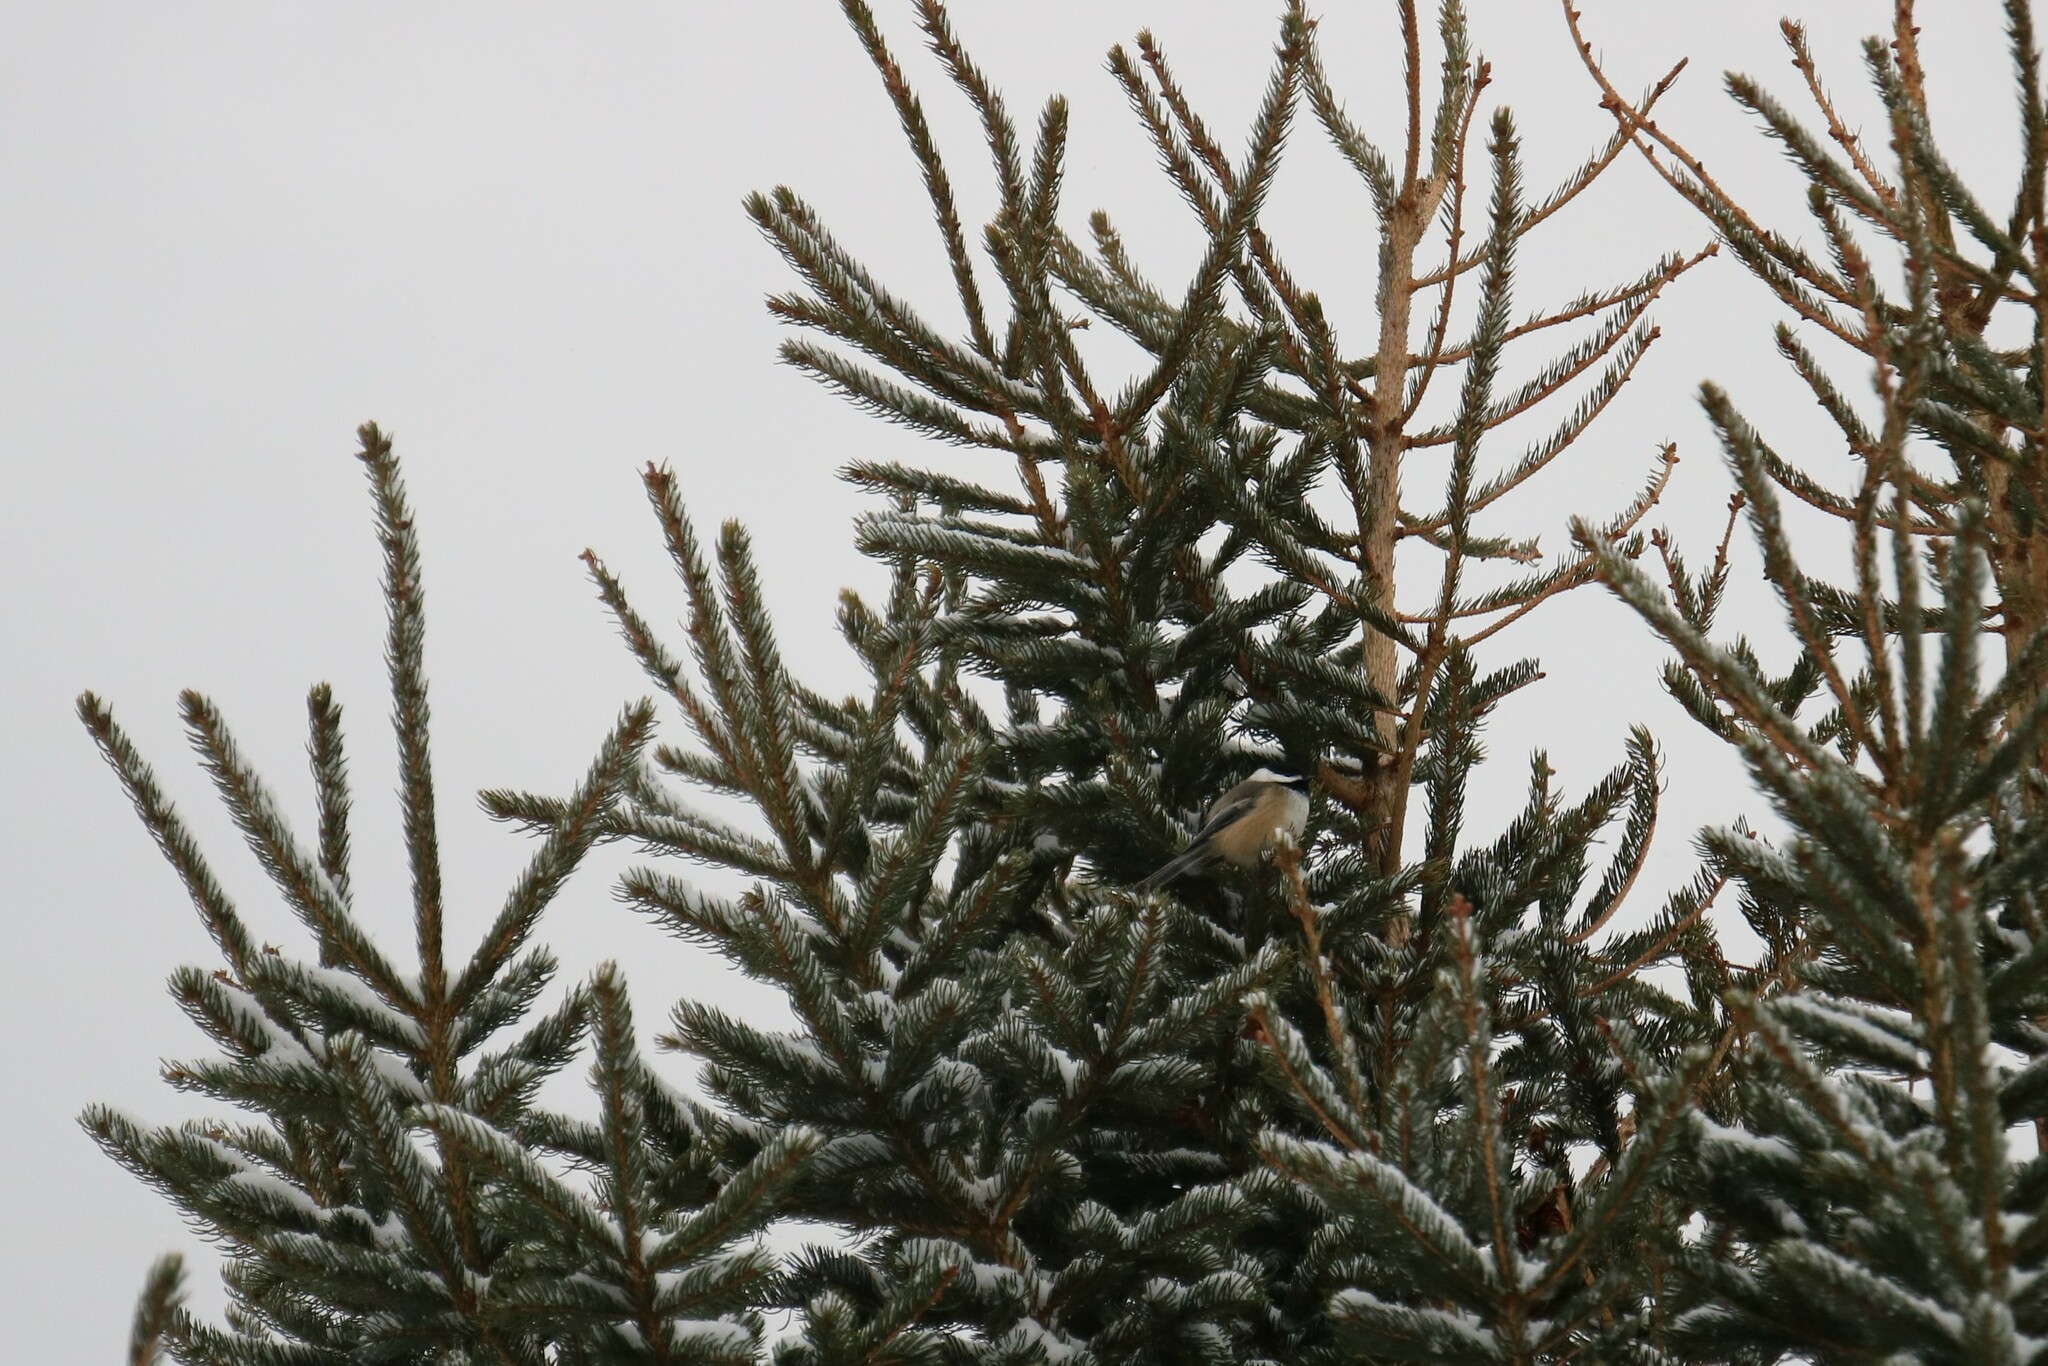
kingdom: Animalia
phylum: Chordata
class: Aves
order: Passeriformes
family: Paridae
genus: Poecile
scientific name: Poecile atricapillus
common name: Black-capped chickadee
